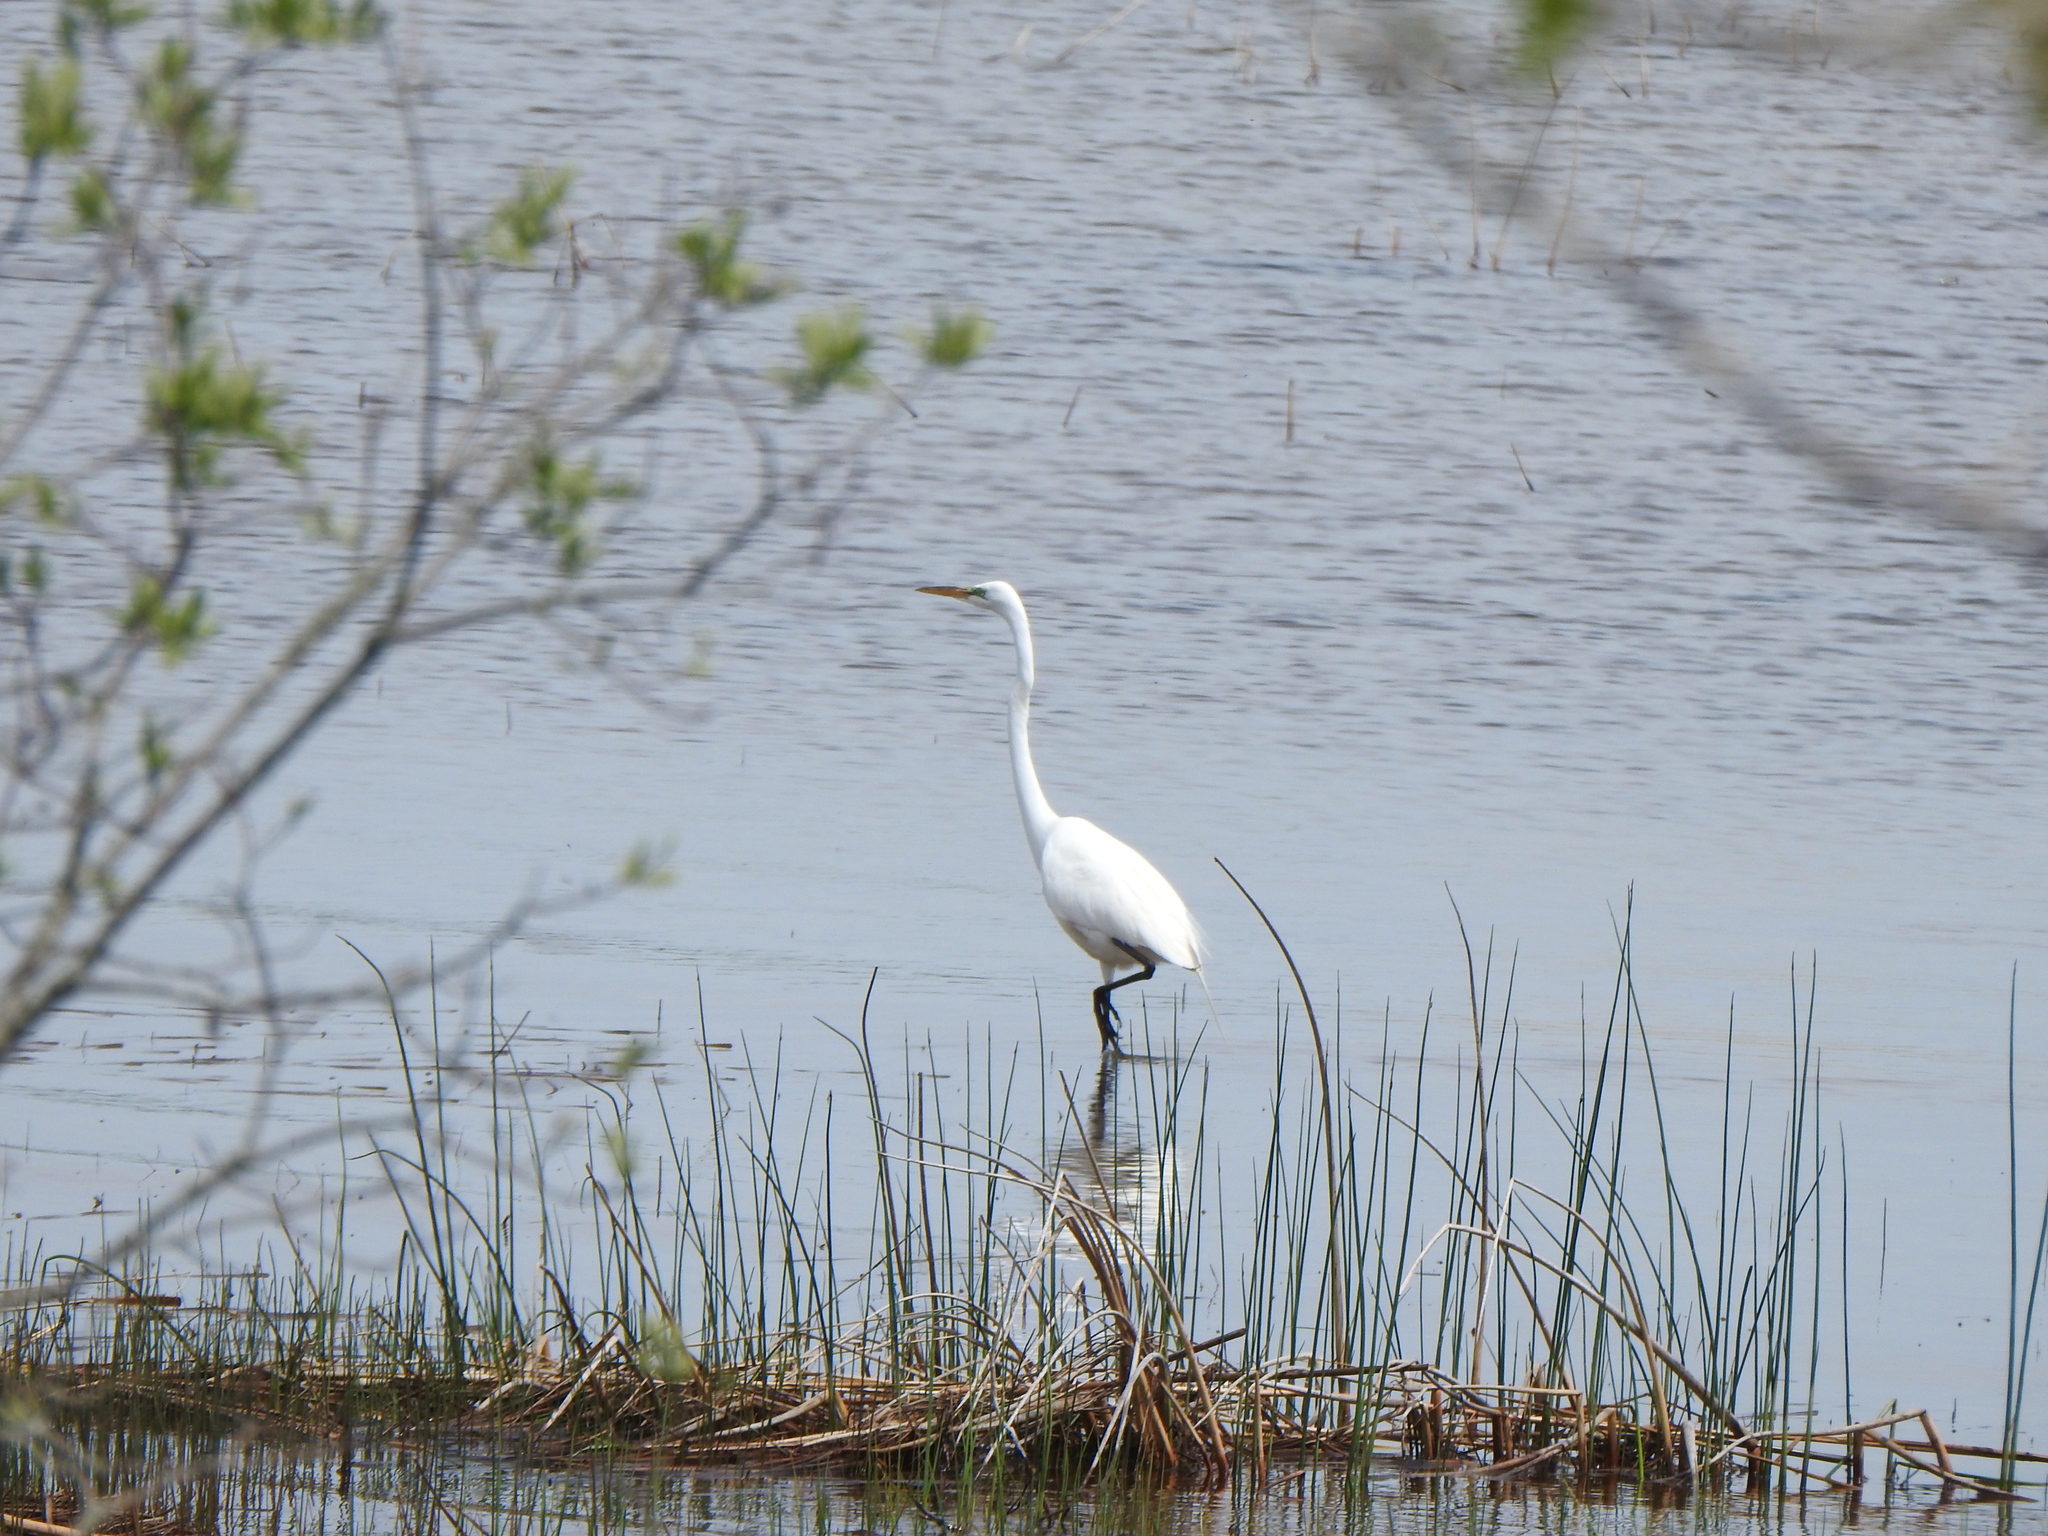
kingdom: Animalia
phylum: Chordata
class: Aves
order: Pelecaniformes
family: Ardeidae
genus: Ardea
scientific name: Ardea alba
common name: Great egret
